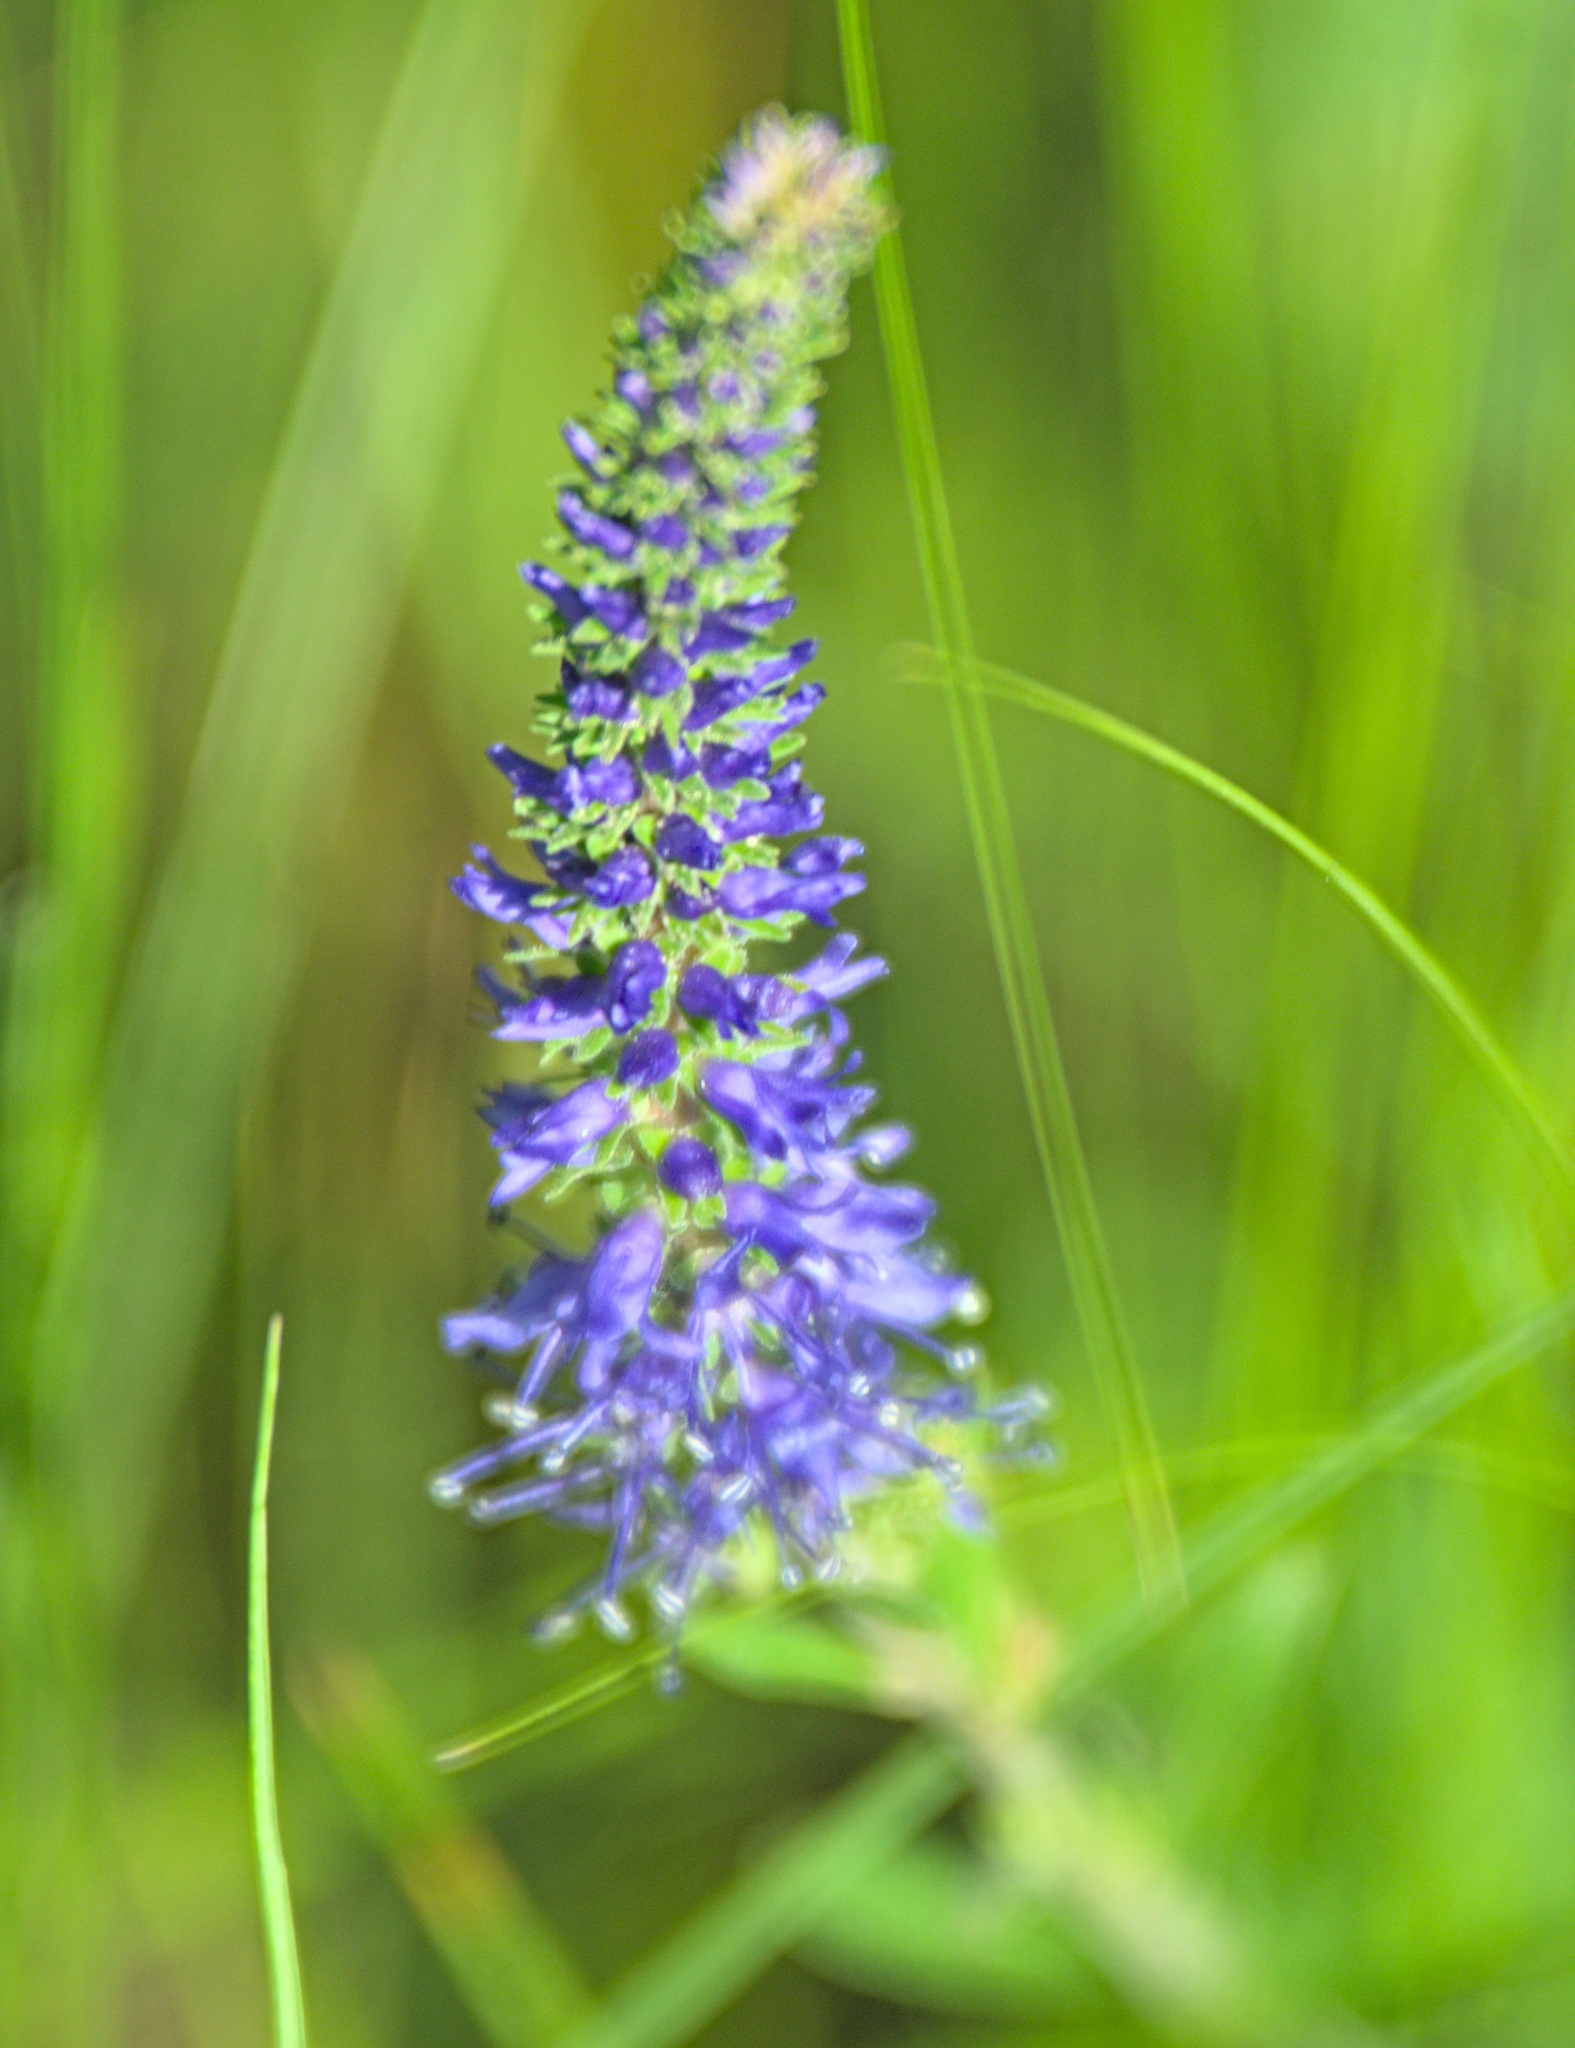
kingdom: Plantae
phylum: Tracheophyta
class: Magnoliopsida
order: Lamiales
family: Plantaginaceae
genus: Veronica
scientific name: Veronica spicata
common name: Spiked speedwell
